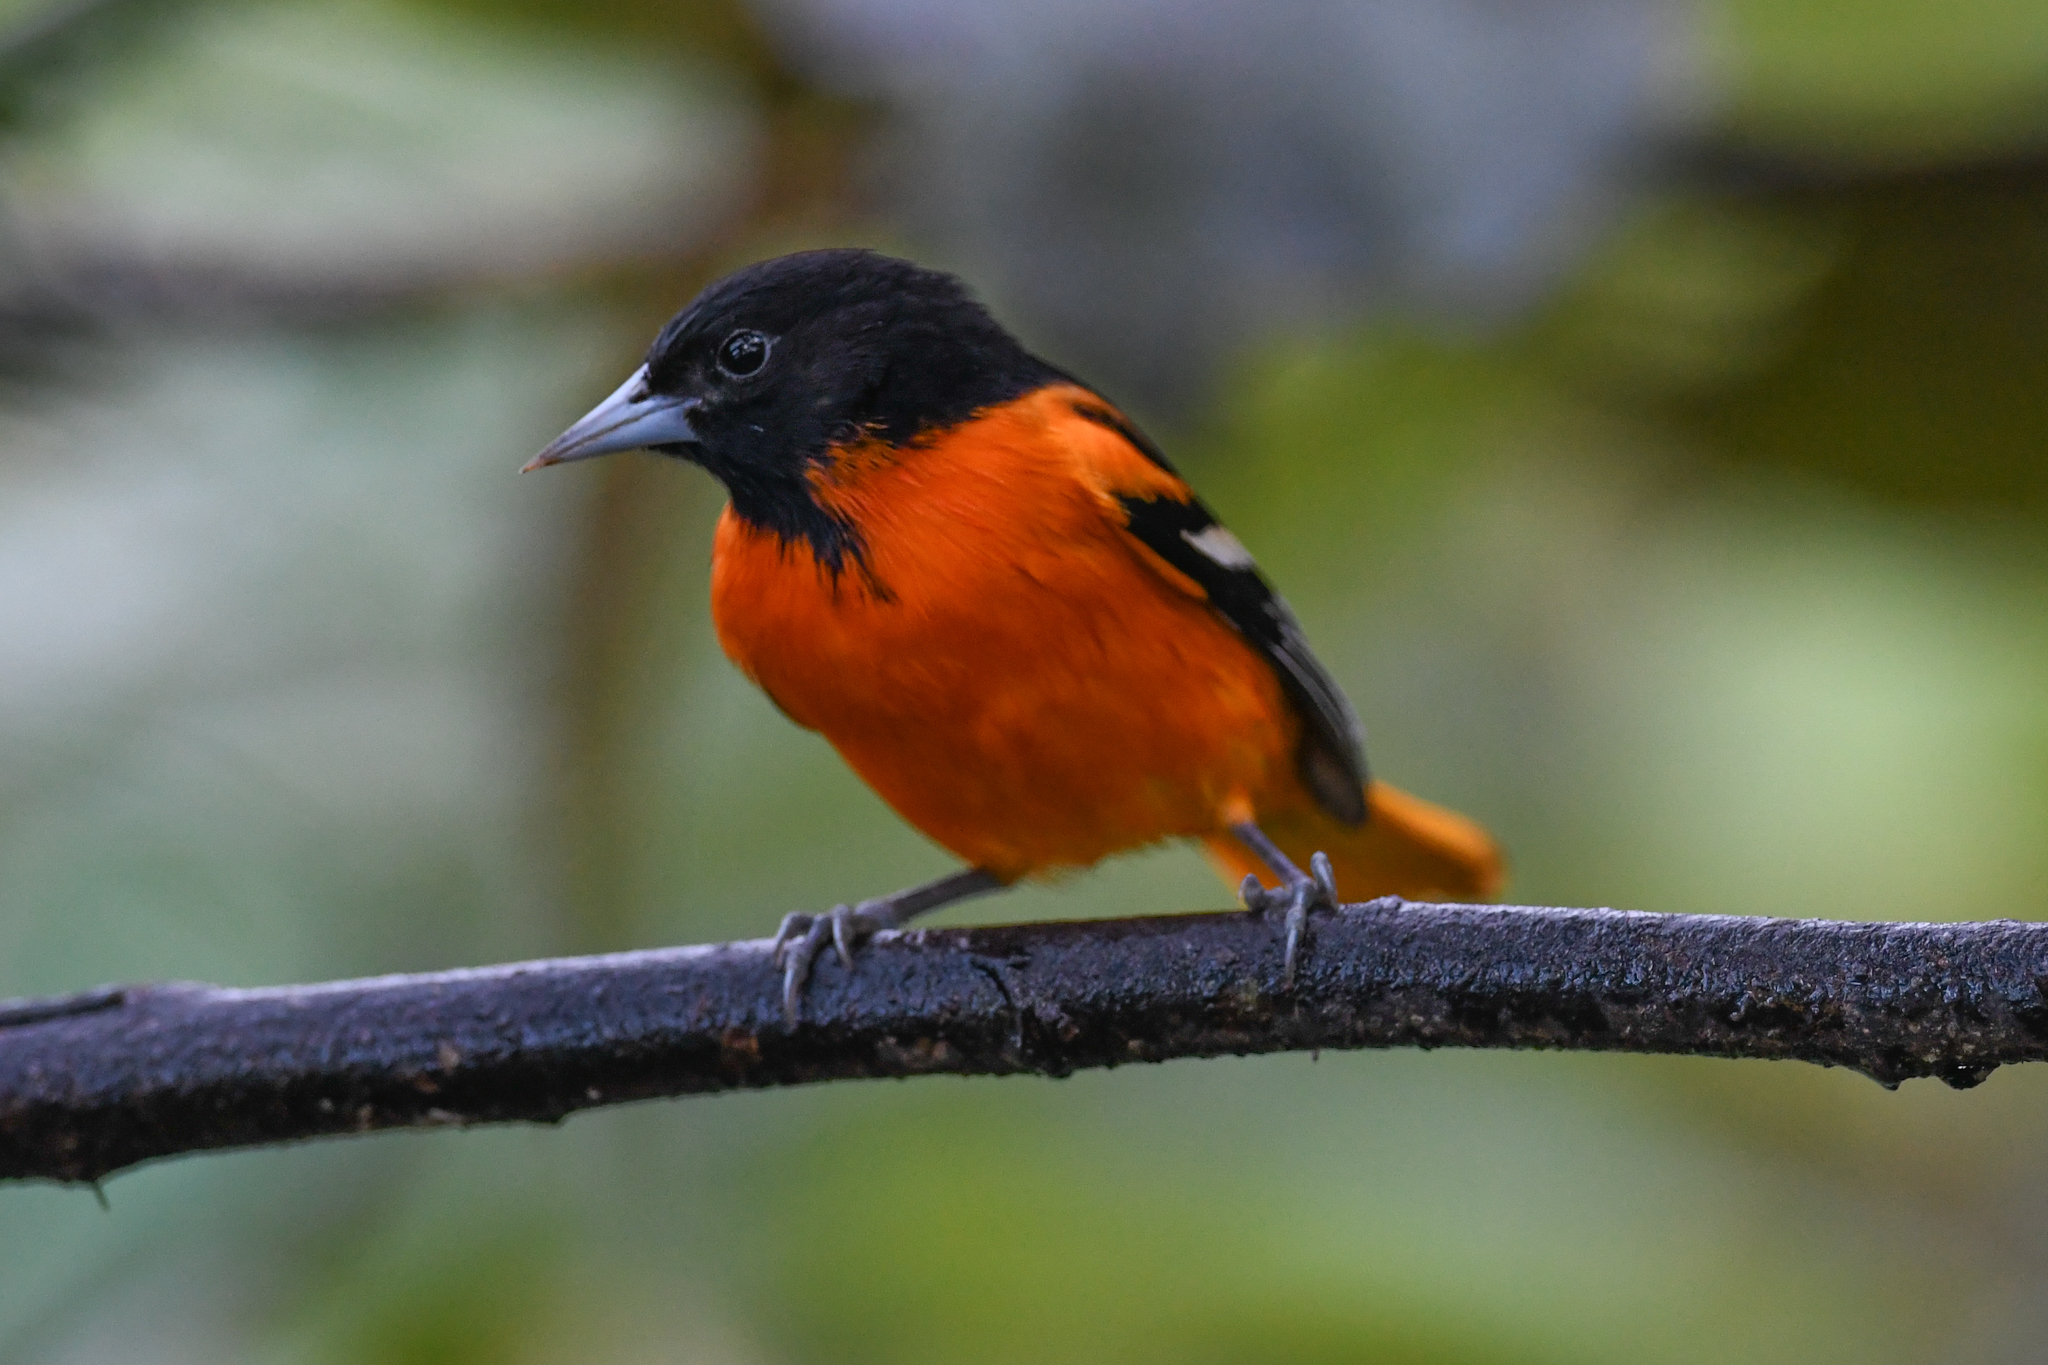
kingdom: Animalia
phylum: Chordata
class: Aves
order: Passeriformes
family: Icteridae
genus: Icterus
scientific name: Icterus galbula
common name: Baltimore oriole
